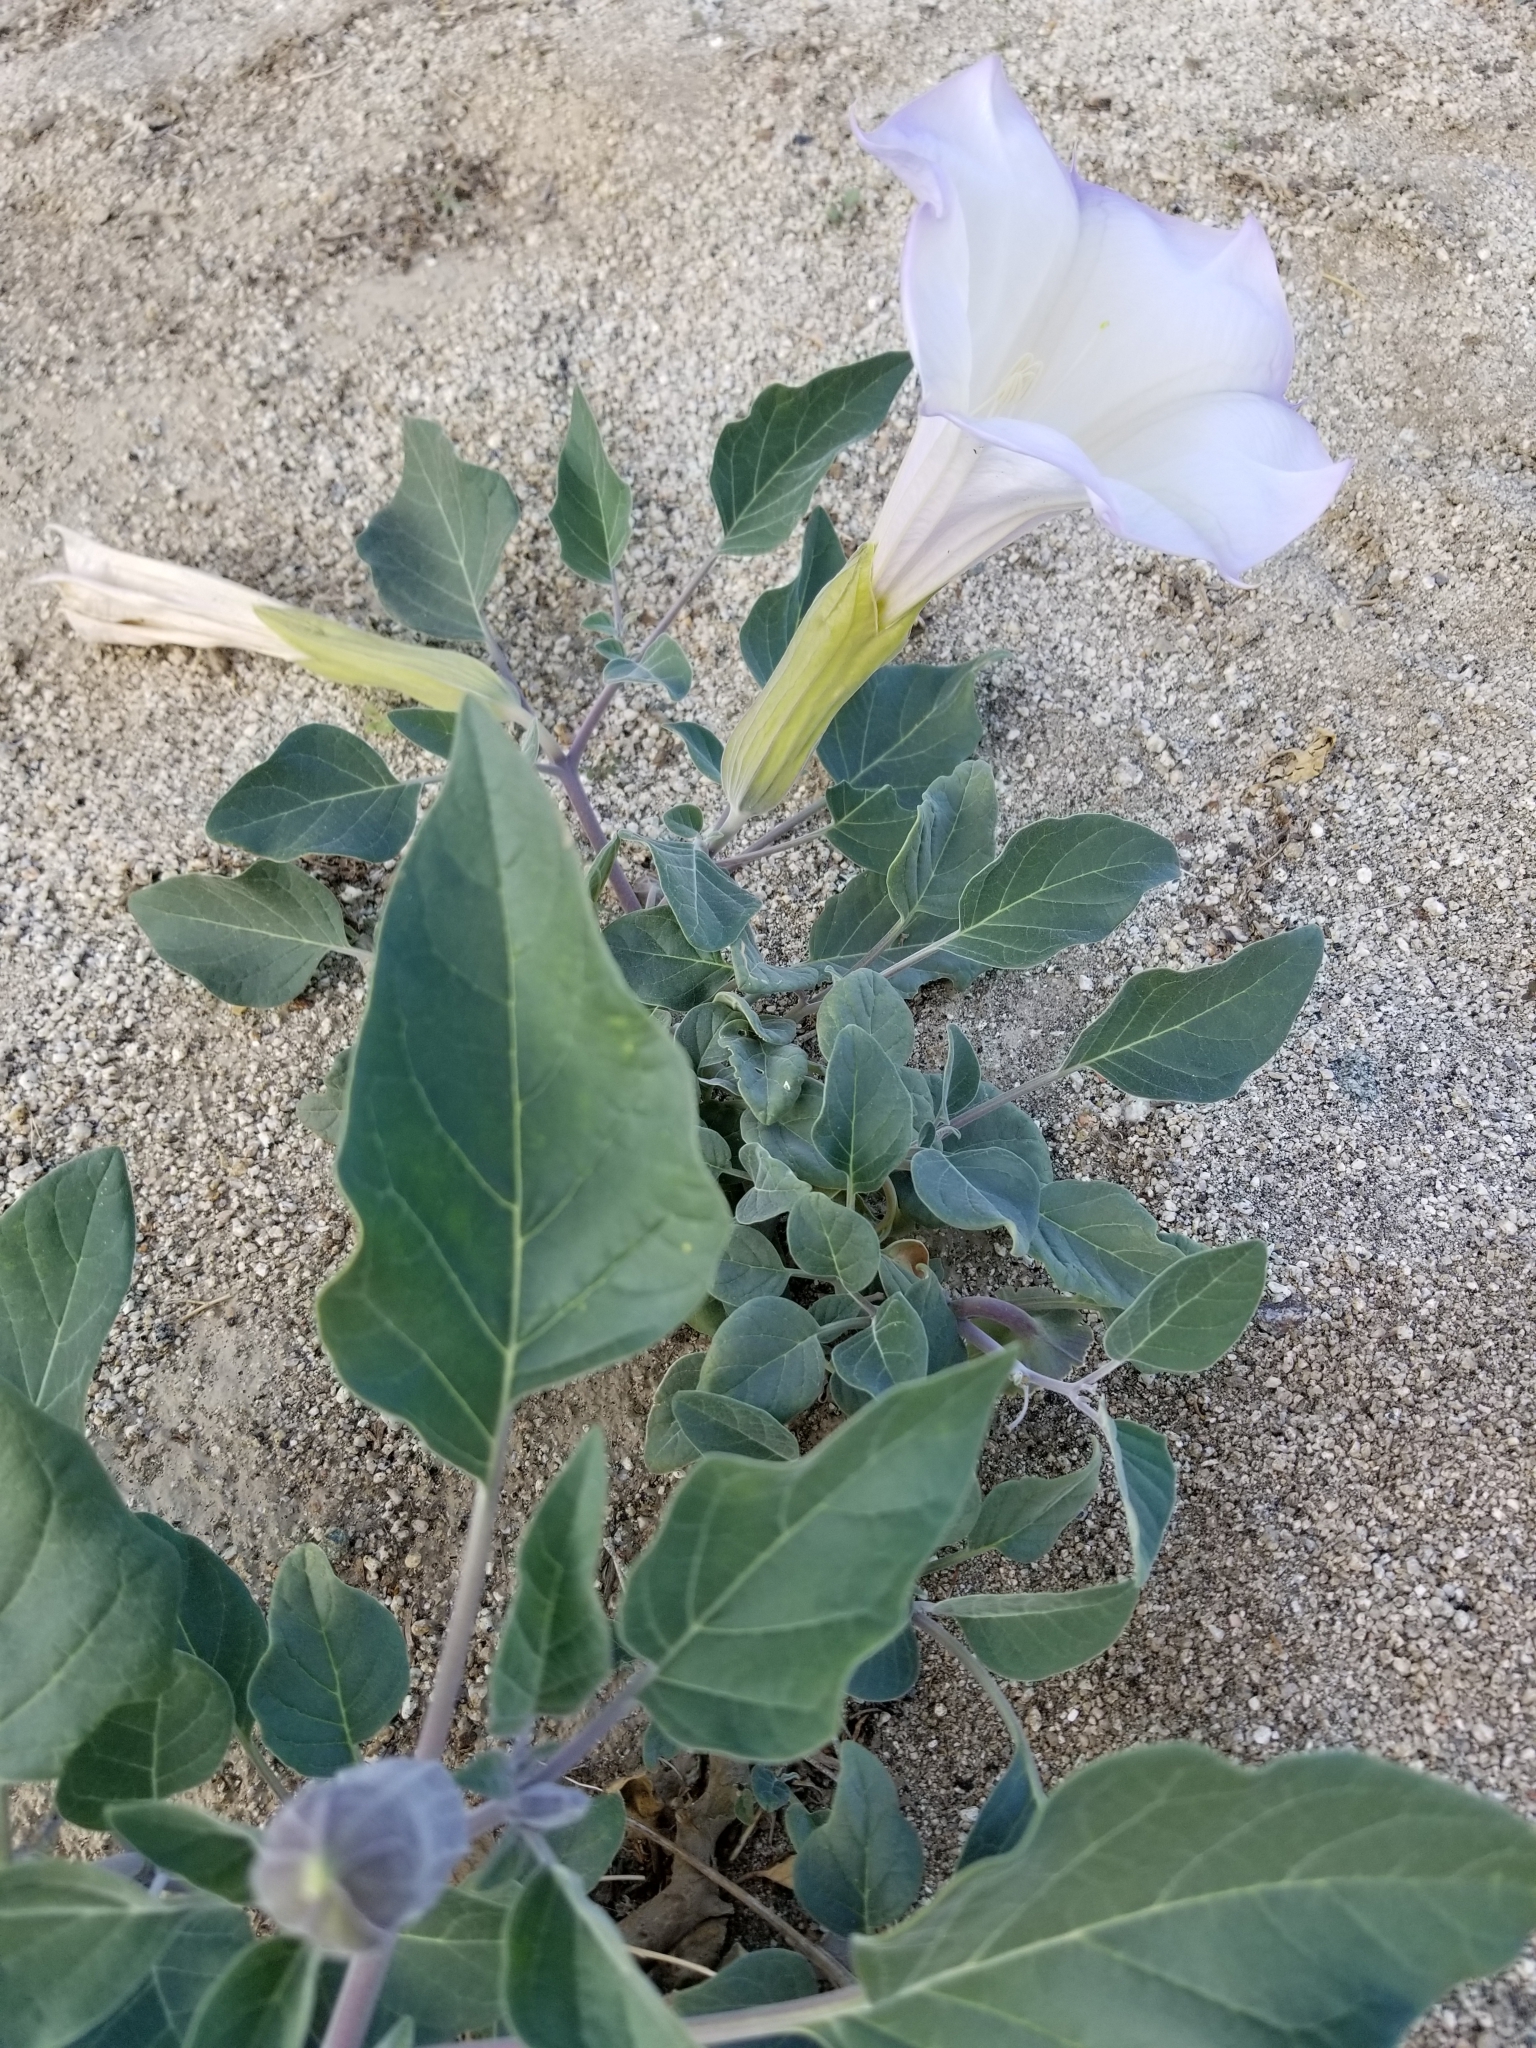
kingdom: Plantae
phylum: Tracheophyta
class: Magnoliopsida
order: Solanales
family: Solanaceae
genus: Datura
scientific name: Datura wrightii
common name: Sacred thorn-apple
